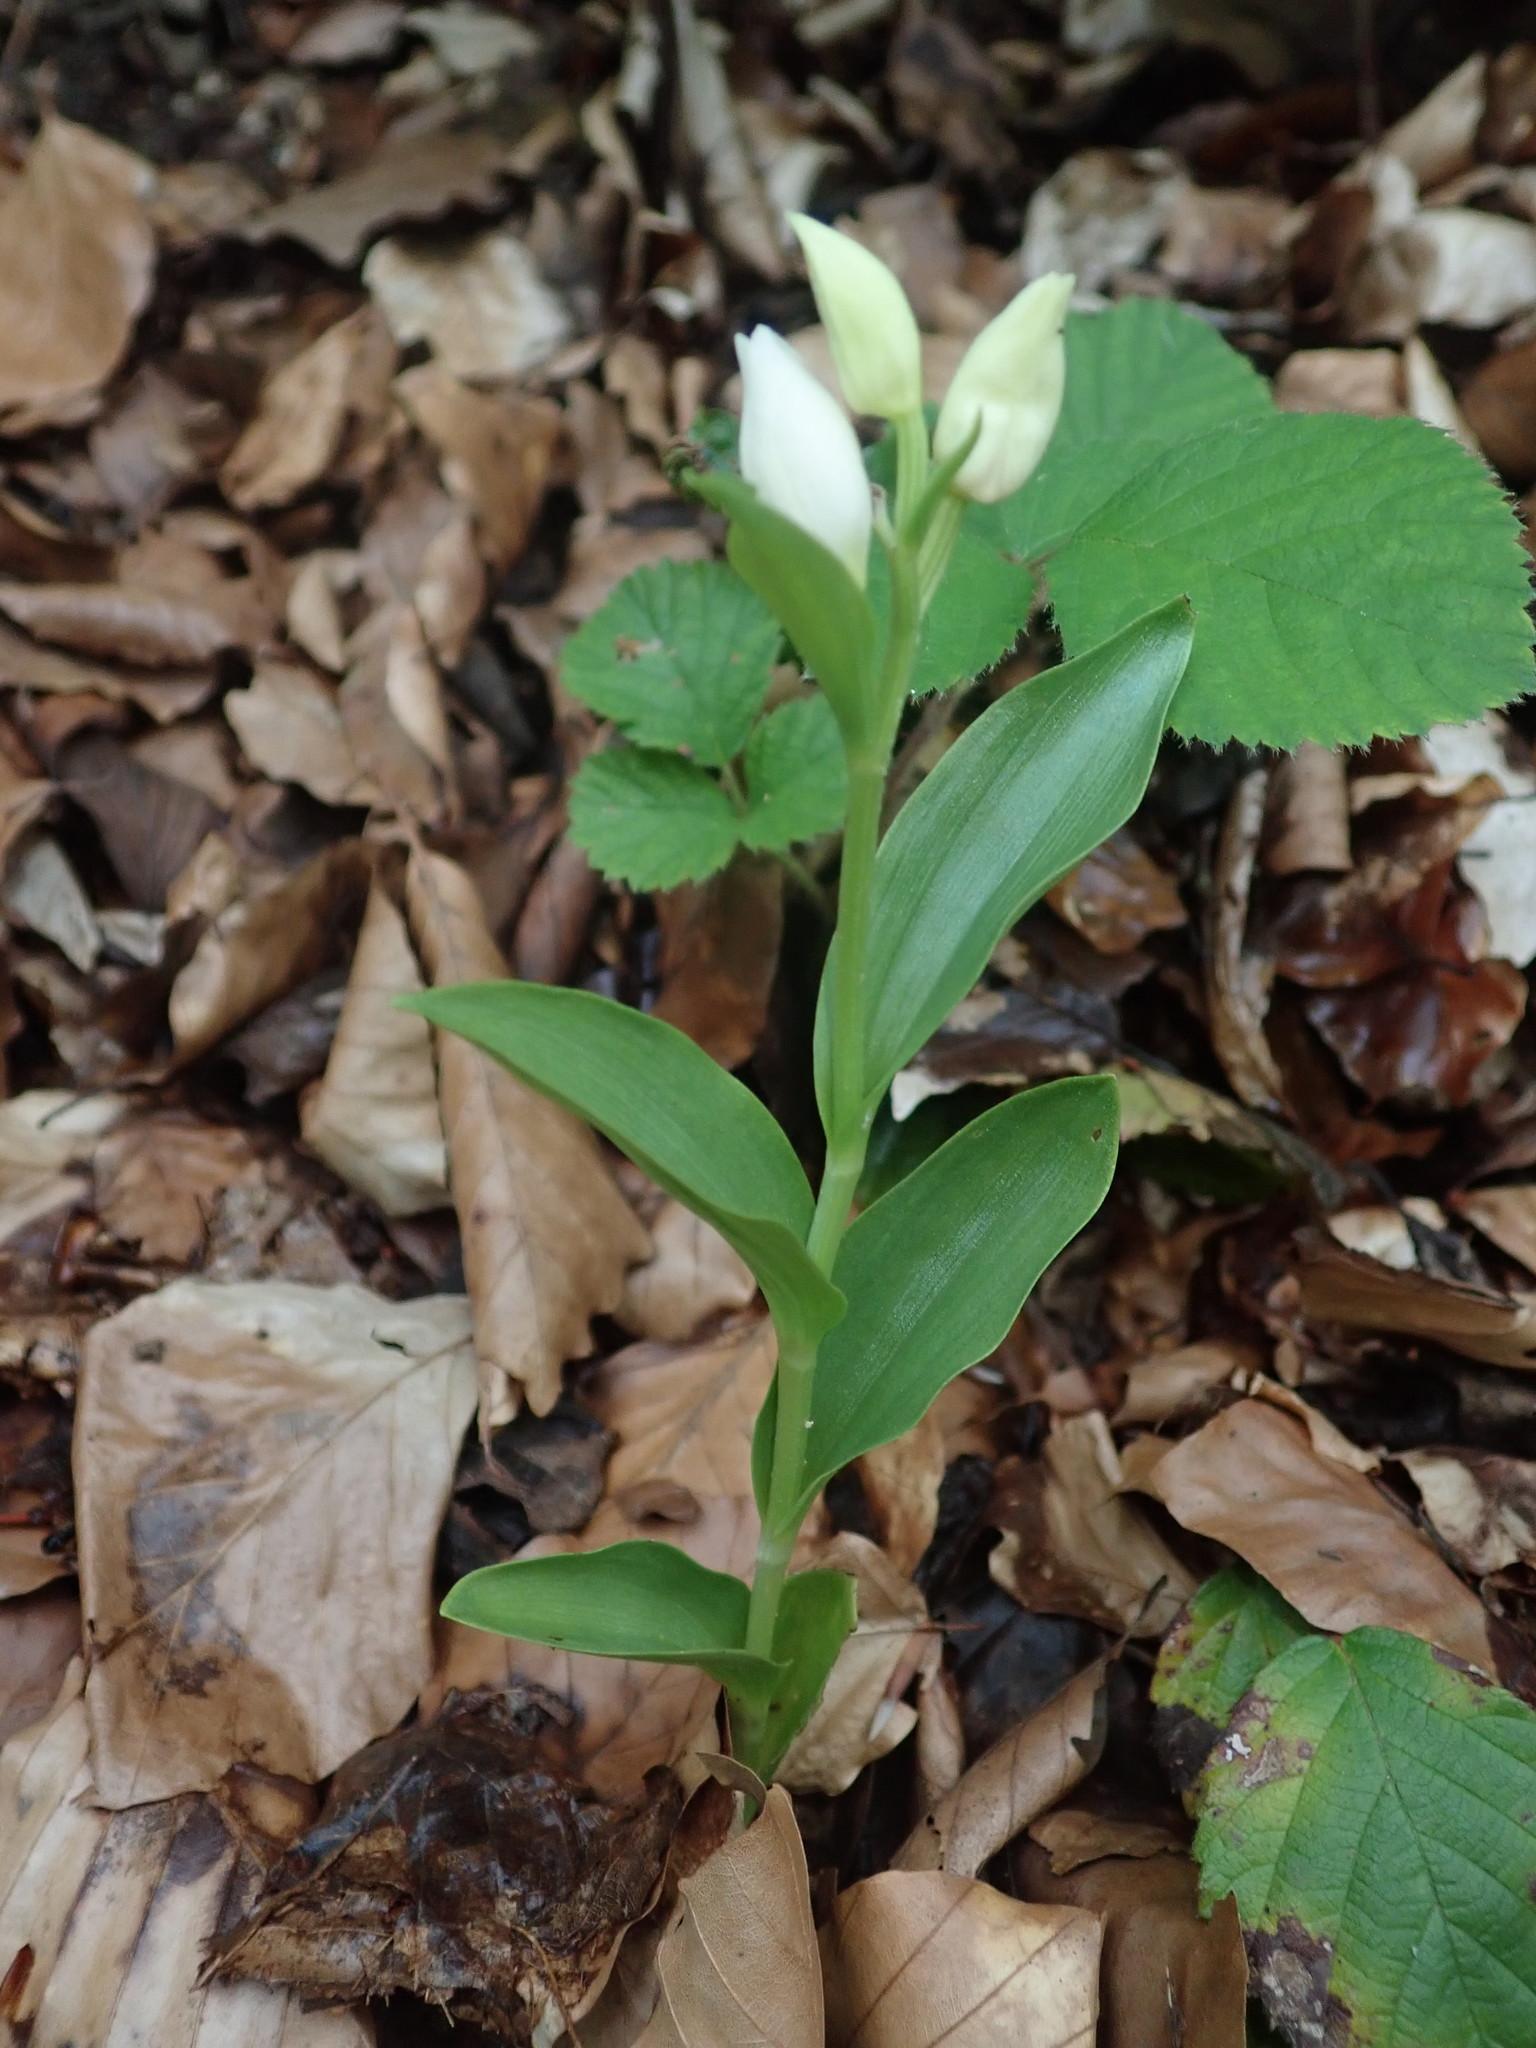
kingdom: Plantae
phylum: Tracheophyta
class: Liliopsida
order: Asparagales
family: Orchidaceae
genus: Cephalanthera
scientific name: Cephalanthera damasonium
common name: White helleborine
